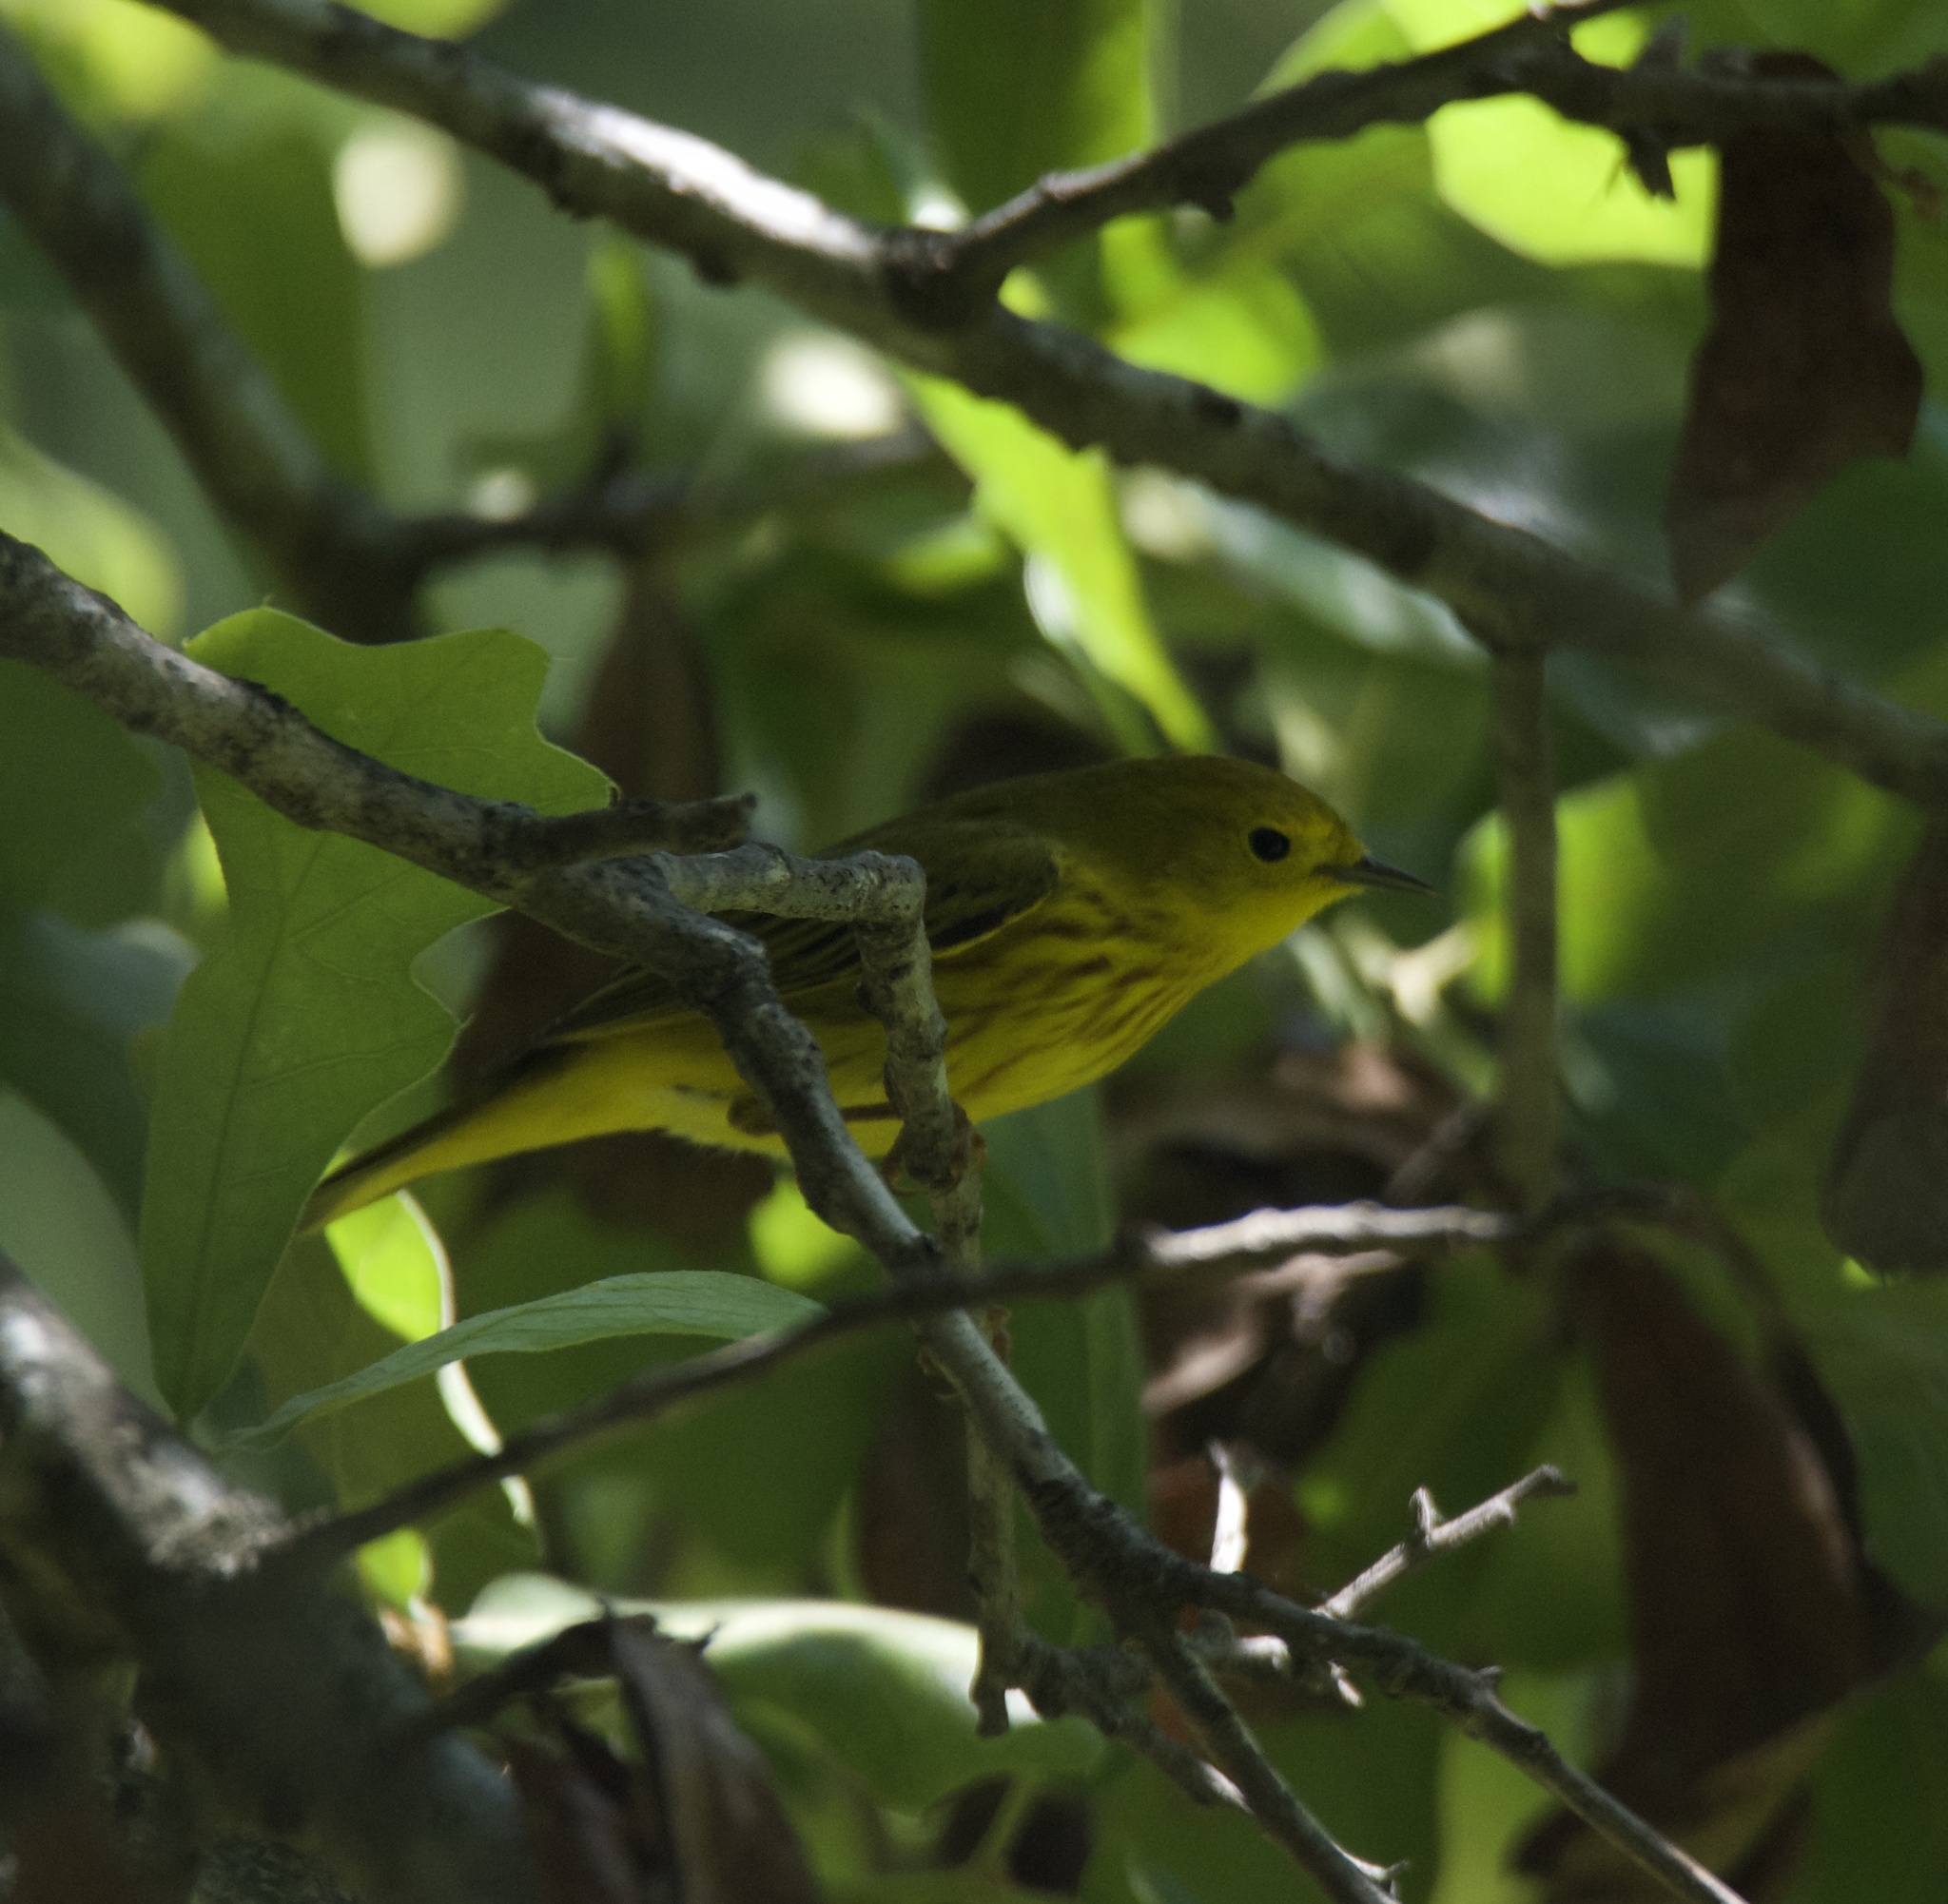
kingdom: Animalia
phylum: Chordata
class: Aves
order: Passeriformes
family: Parulidae
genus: Setophaga
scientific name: Setophaga petechia
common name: Yellow warbler
